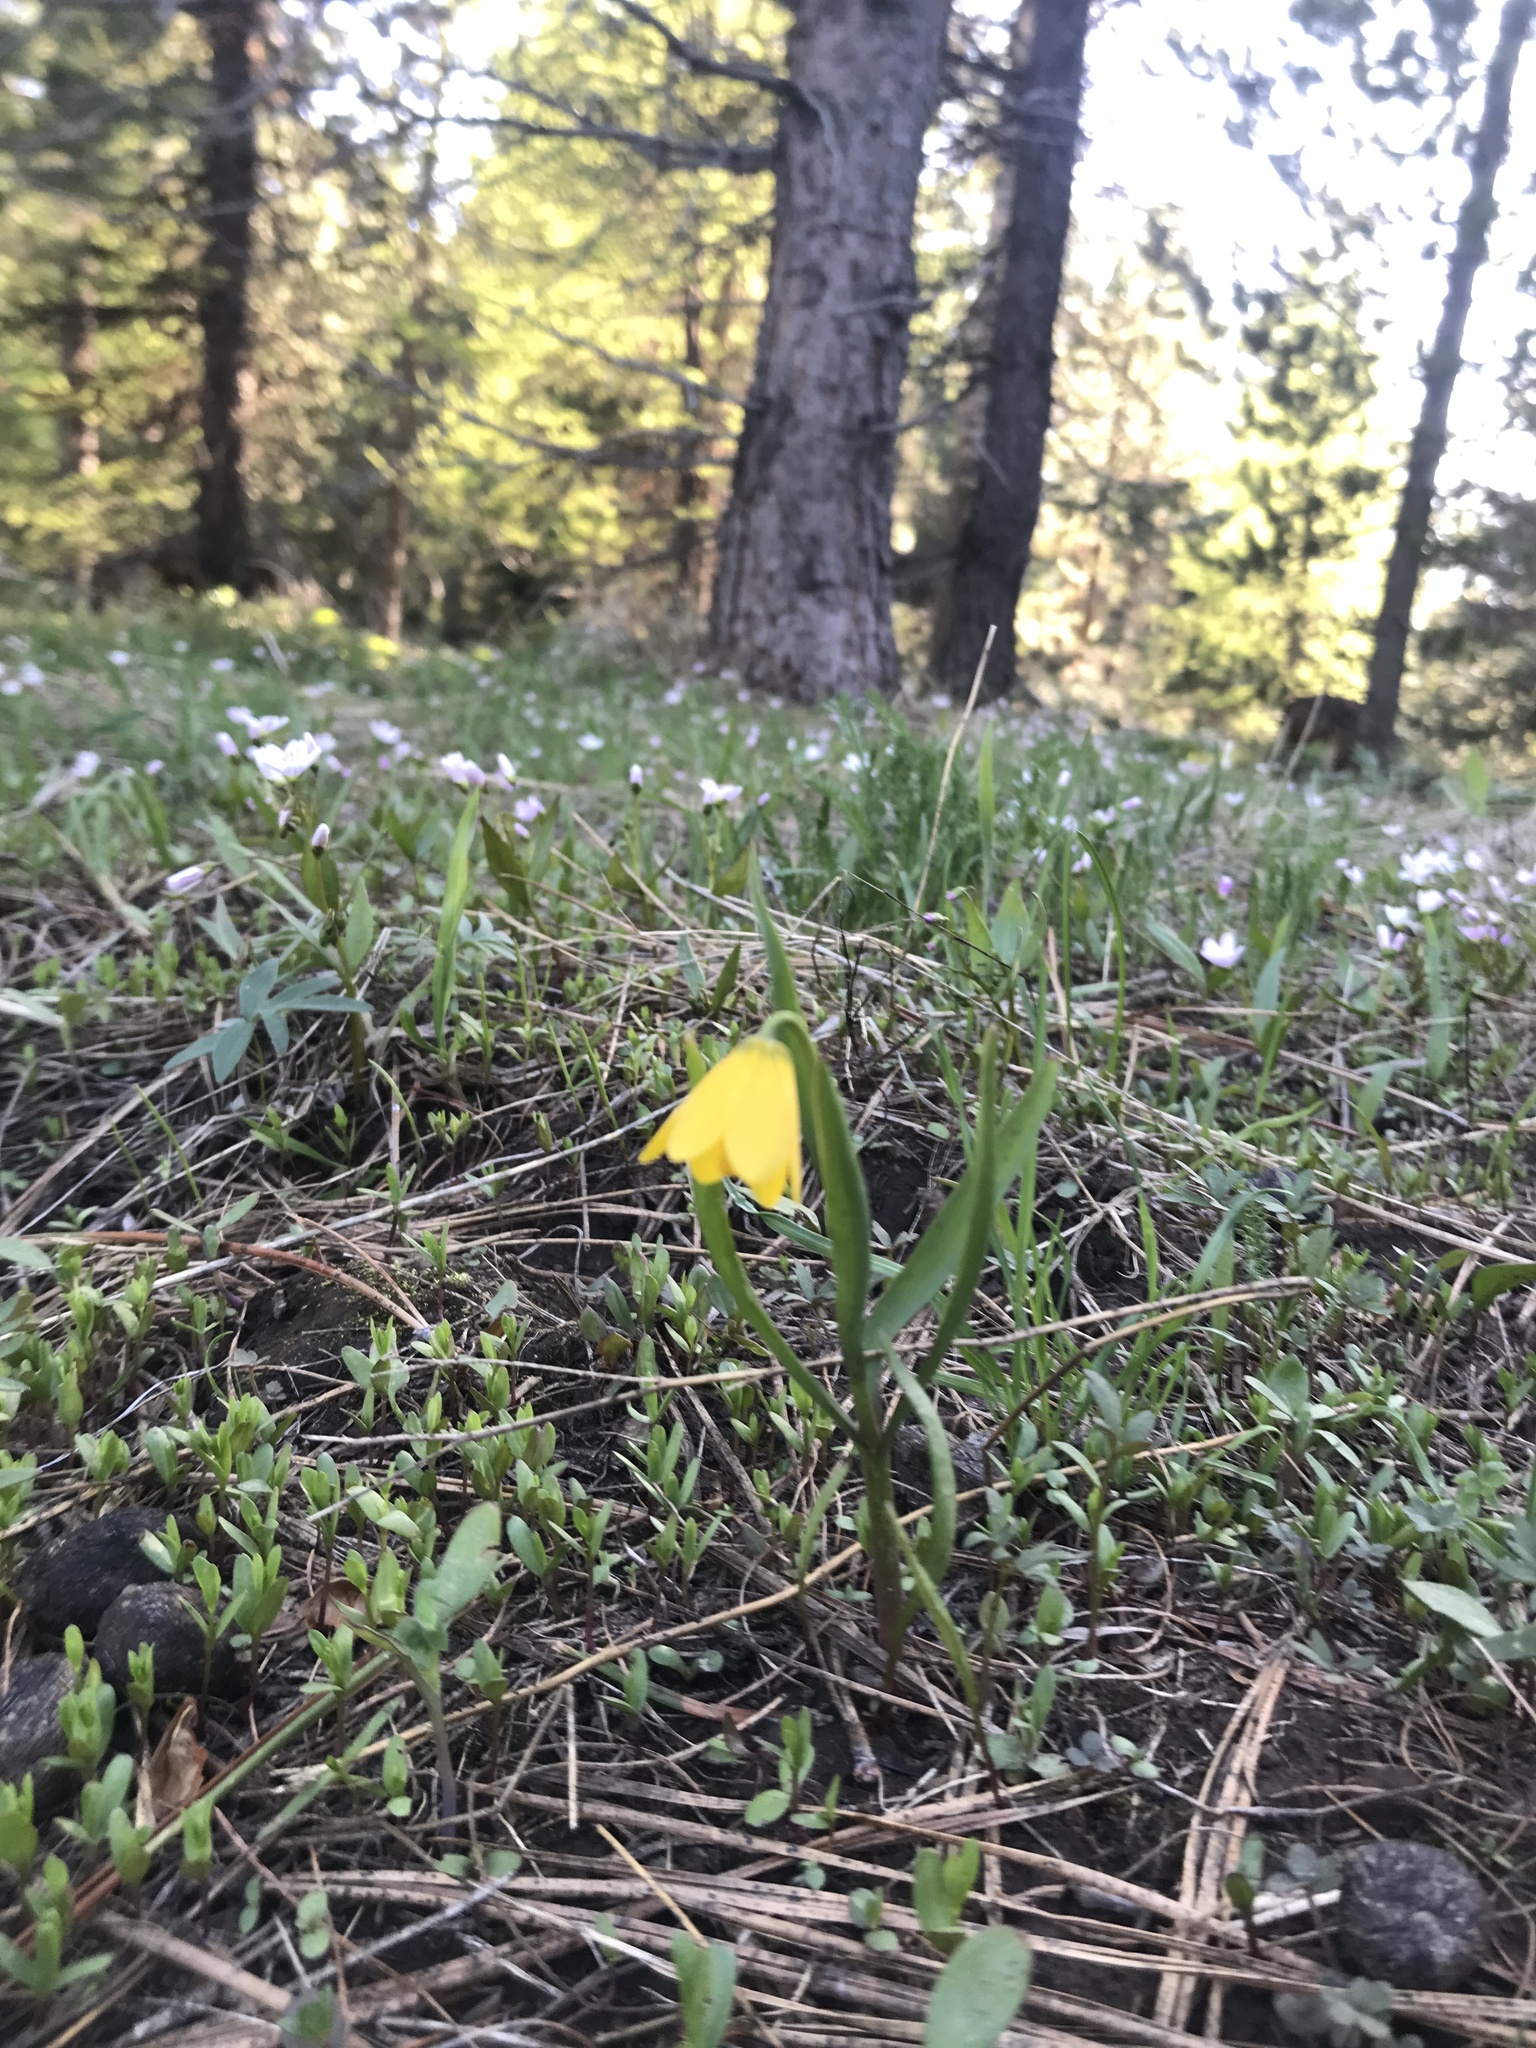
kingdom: Plantae
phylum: Tracheophyta
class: Liliopsida
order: Liliales
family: Liliaceae
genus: Fritillaria
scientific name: Fritillaria pudica
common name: Yellow fritillary
